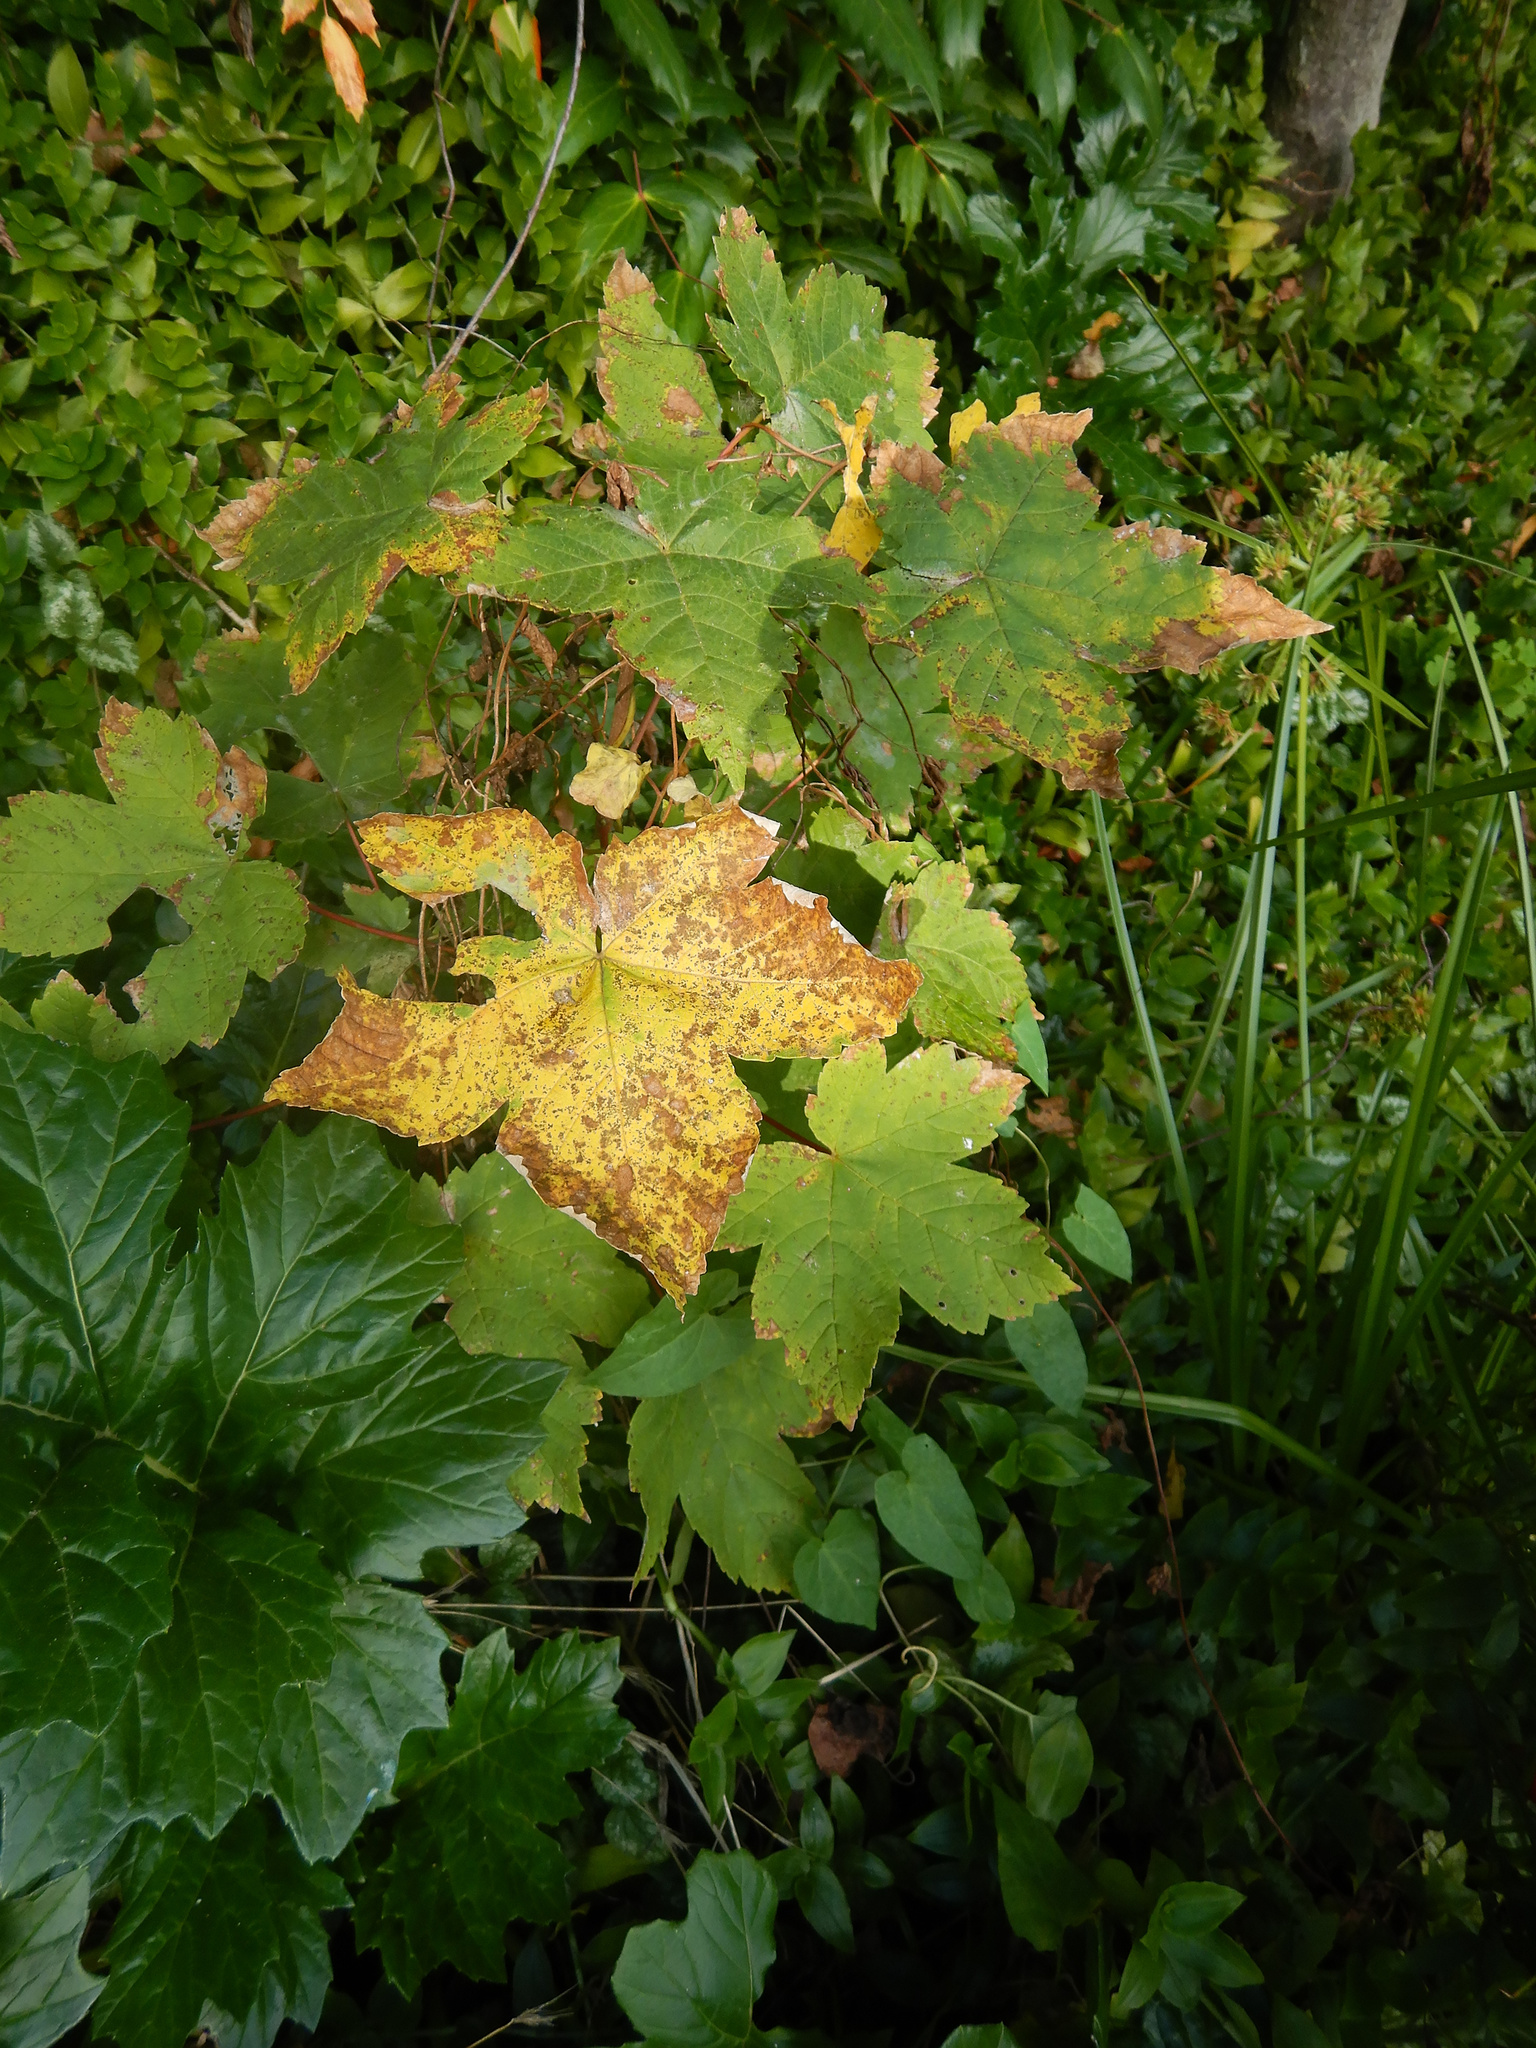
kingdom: Plantae
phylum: Tracheophyta
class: Magnoliopsida
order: Sapindales
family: Sapindaceae
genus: Acer
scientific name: Acer pseudoplatanus
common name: Sycamore
